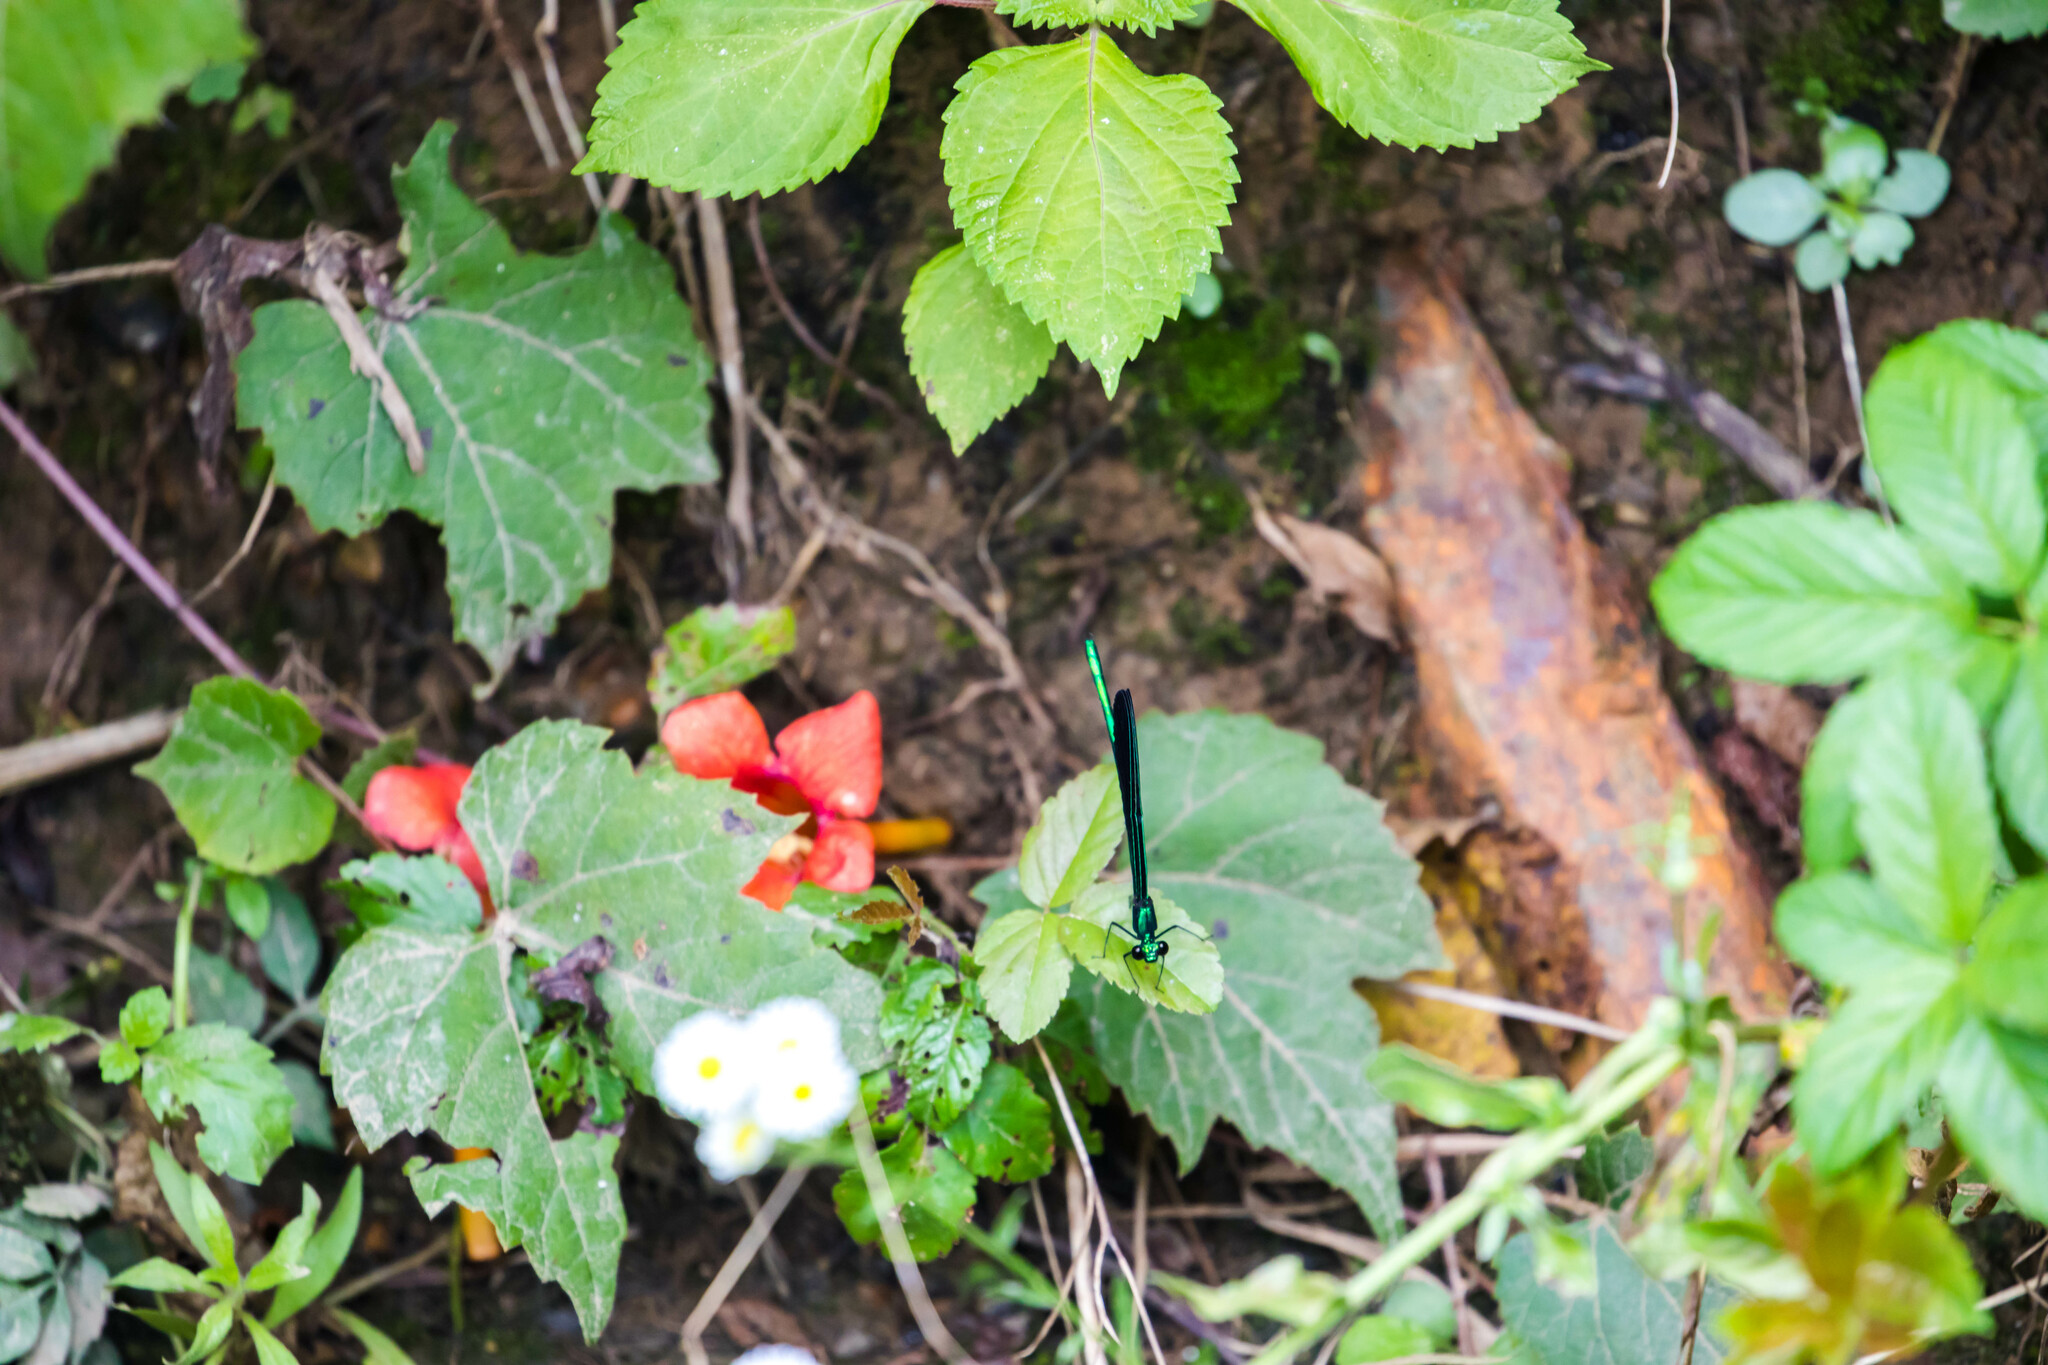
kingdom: Animalia
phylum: Arthropoda
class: Insecta
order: Odonata
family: Calopterygidae
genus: Calopteryx
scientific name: Calopteryx maculata
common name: Ebony jewelwing
